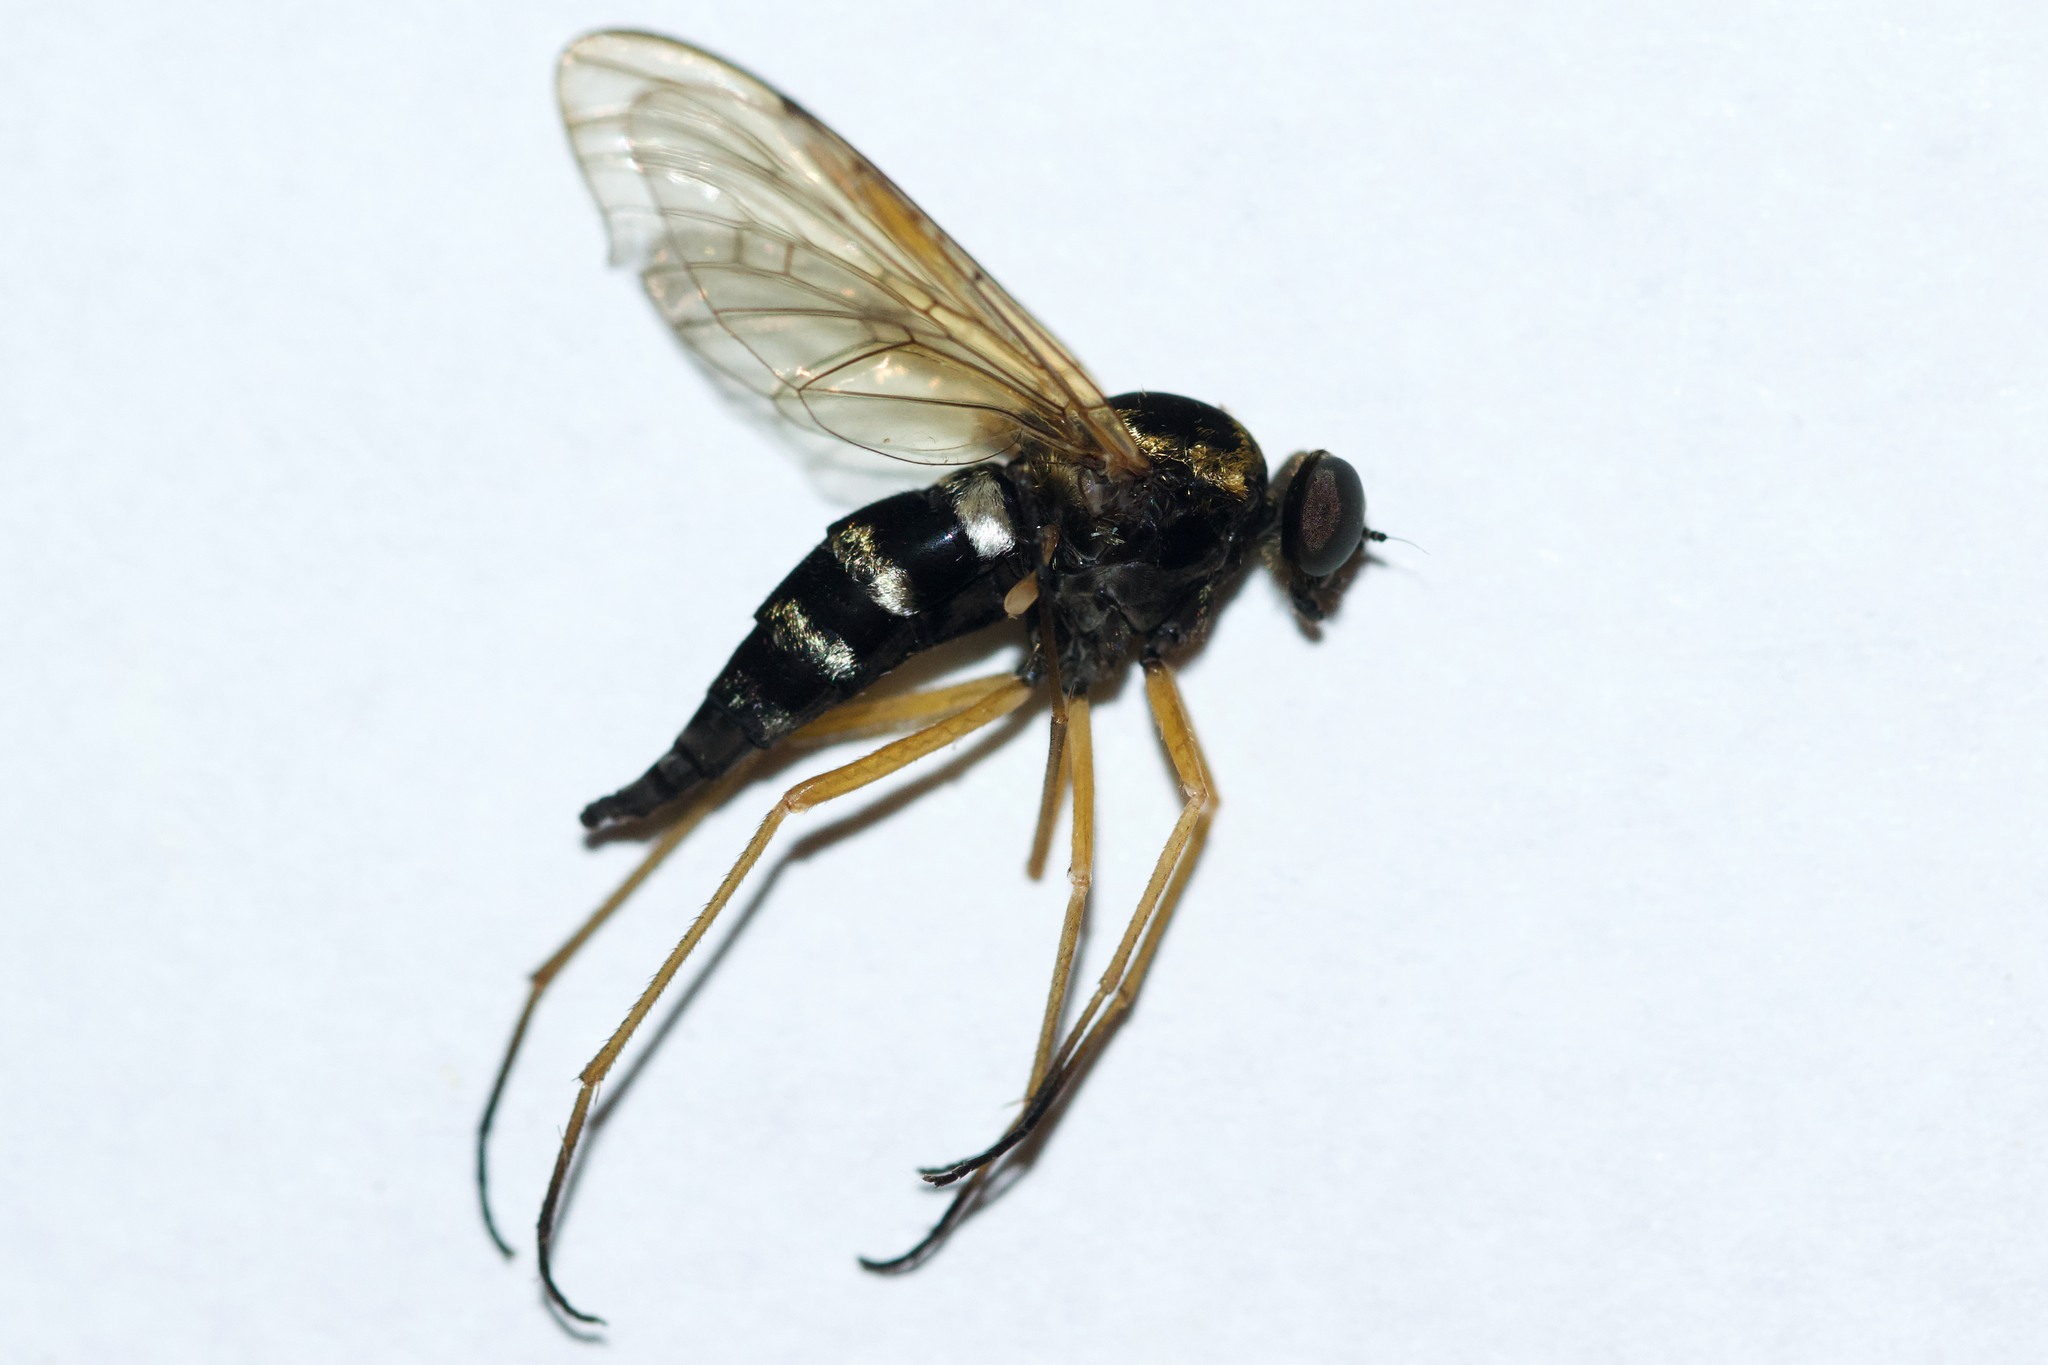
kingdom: Animalia
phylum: Arthropoda
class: Insecta
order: Diptera
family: Rhagionidae
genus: Chrysopilus
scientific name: Chrysopilus ornatus
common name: Ornate snipe fly
